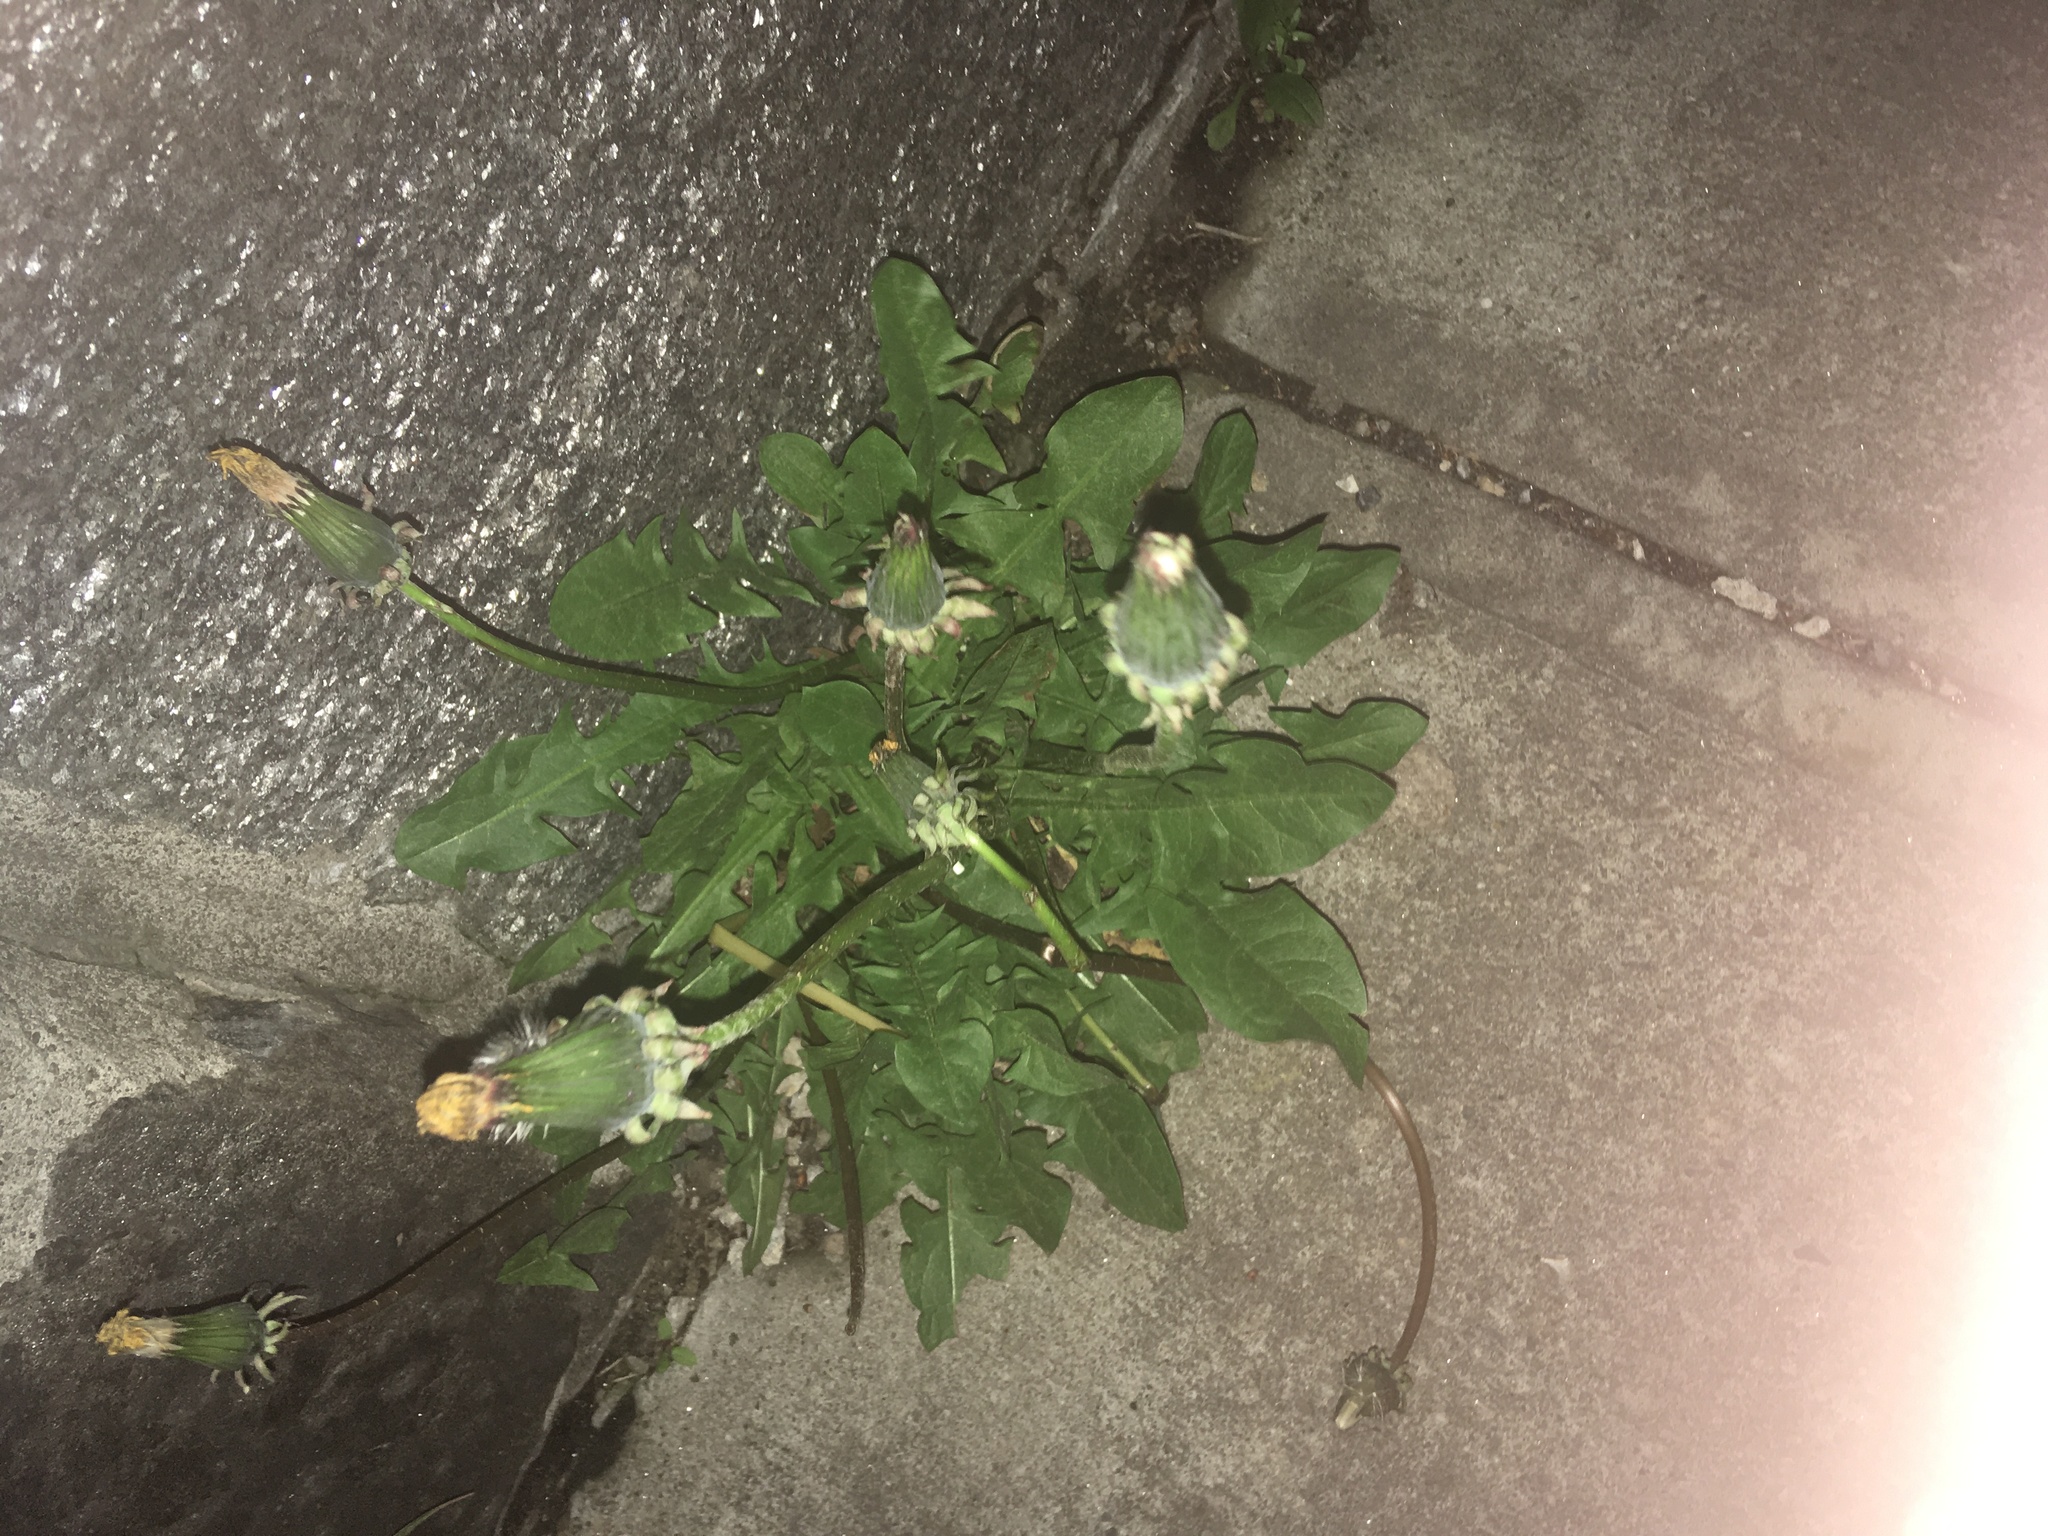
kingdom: Plantae
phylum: Tracheophyta
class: Magnoliopsida
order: Asterales
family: Asteraceae
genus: Taraxacum
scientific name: Taraxacum officinale
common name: Common dandelion
